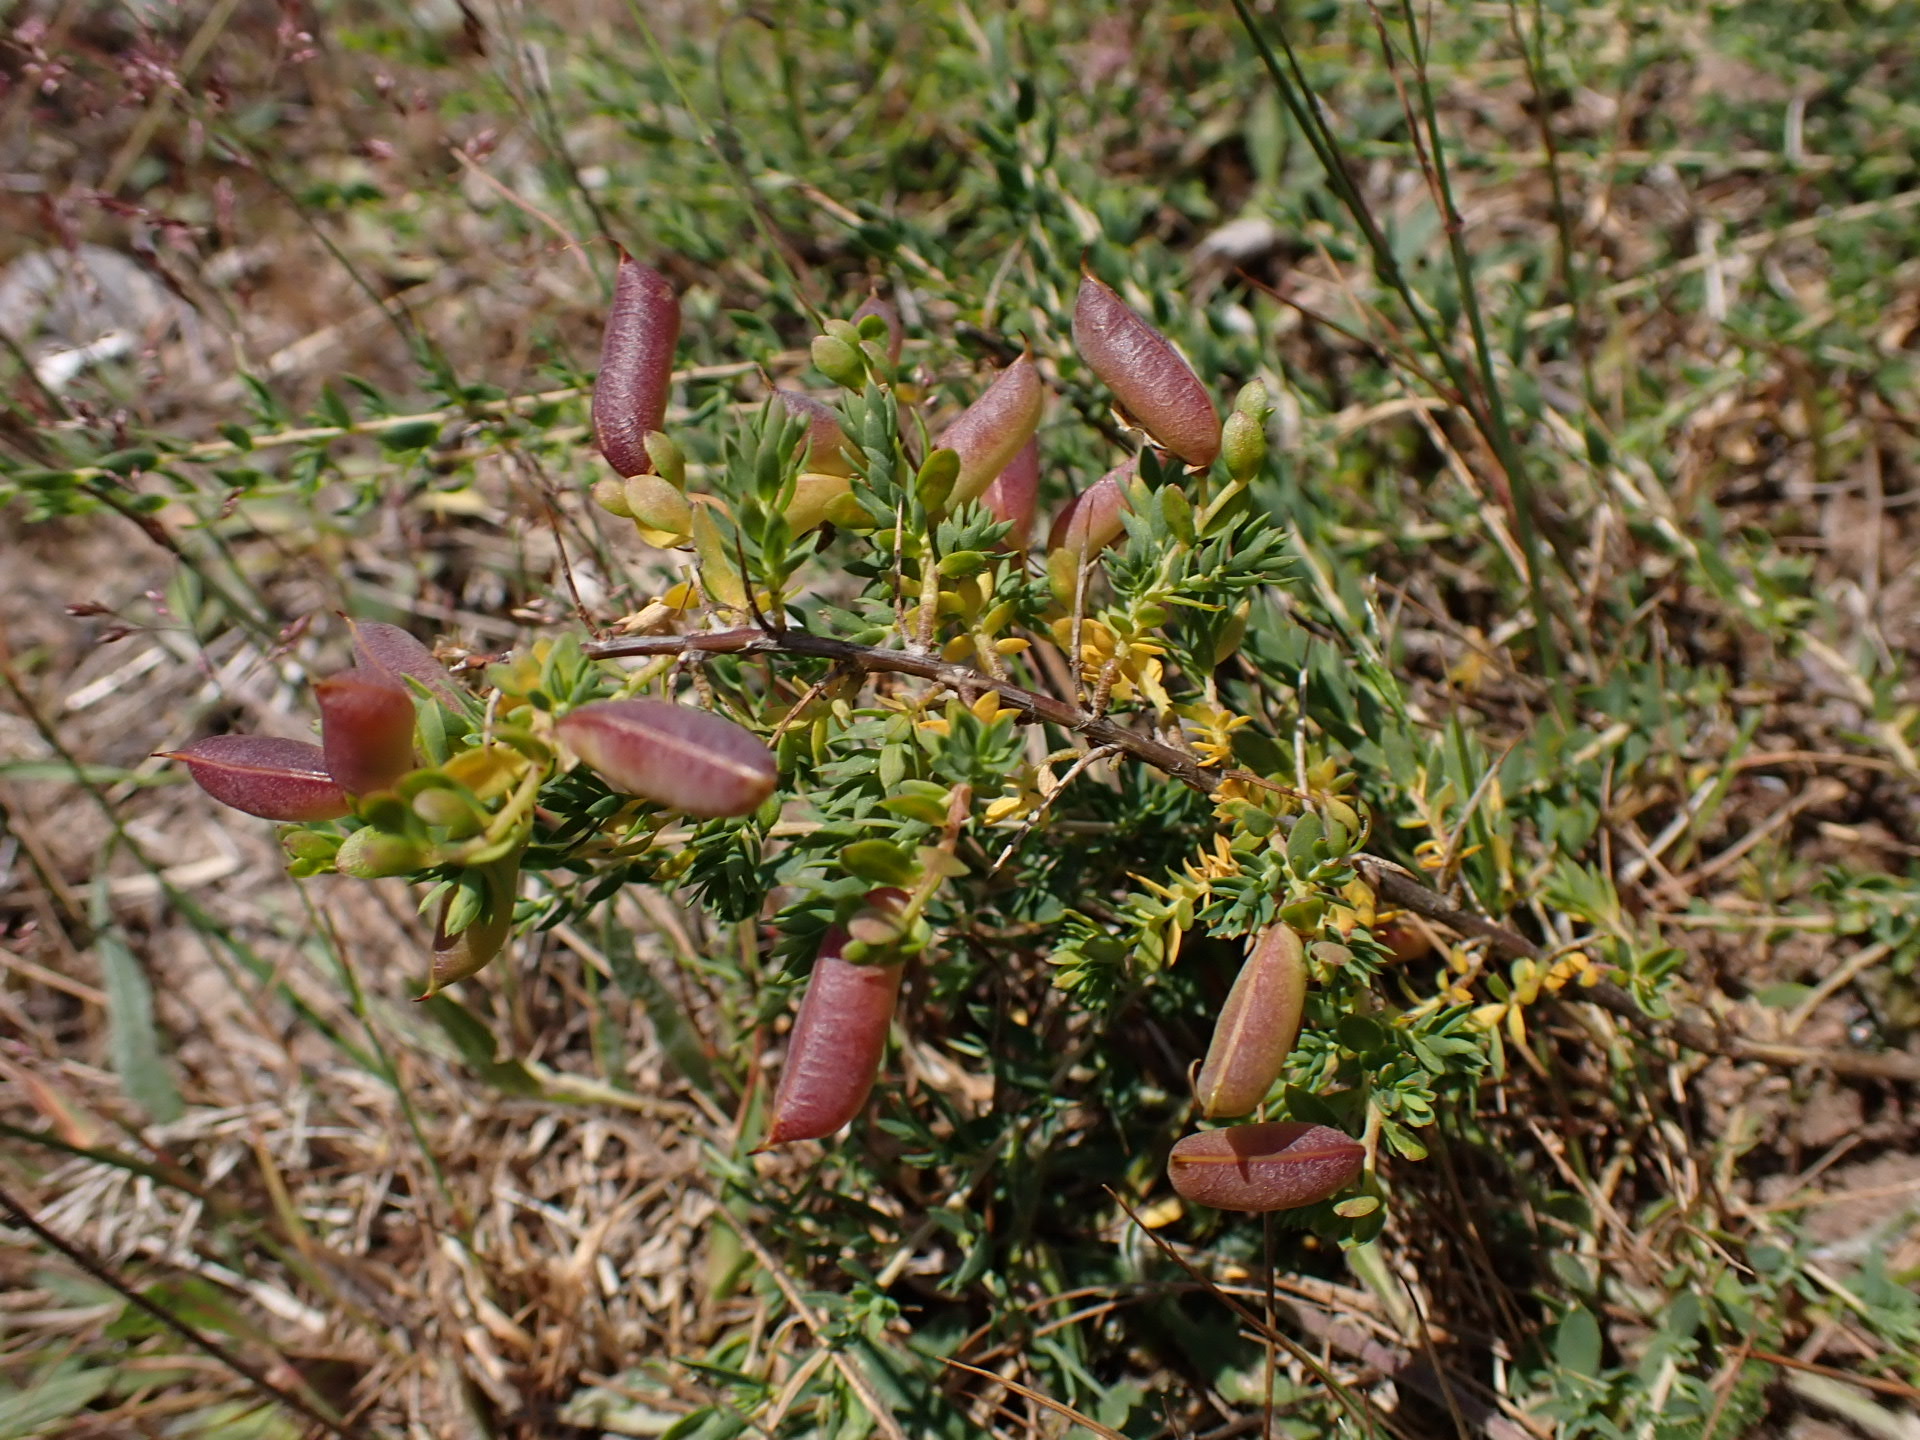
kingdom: Plantae
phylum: Tracheophyta
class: Magnoliopsida
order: Fabales
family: Fabaceae
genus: Genista
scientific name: Genista anglica
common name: Petty whin
